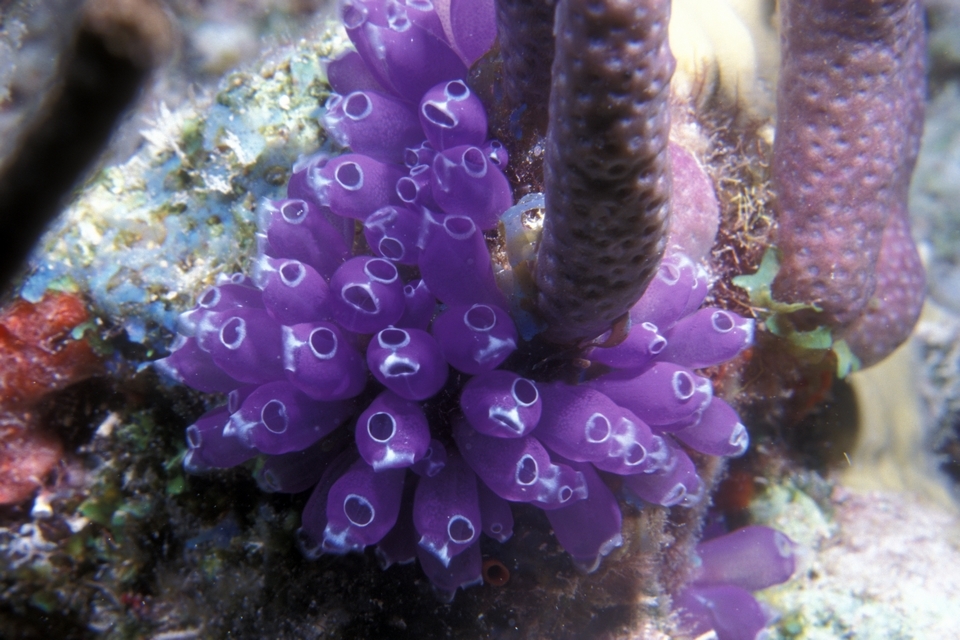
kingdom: Animalia
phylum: Chordata
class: Ascidiacea
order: Aplousobranchia
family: Clavelinidae
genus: Clavelina
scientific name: Clavelina puertosecensis
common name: Blue bell tunicate
